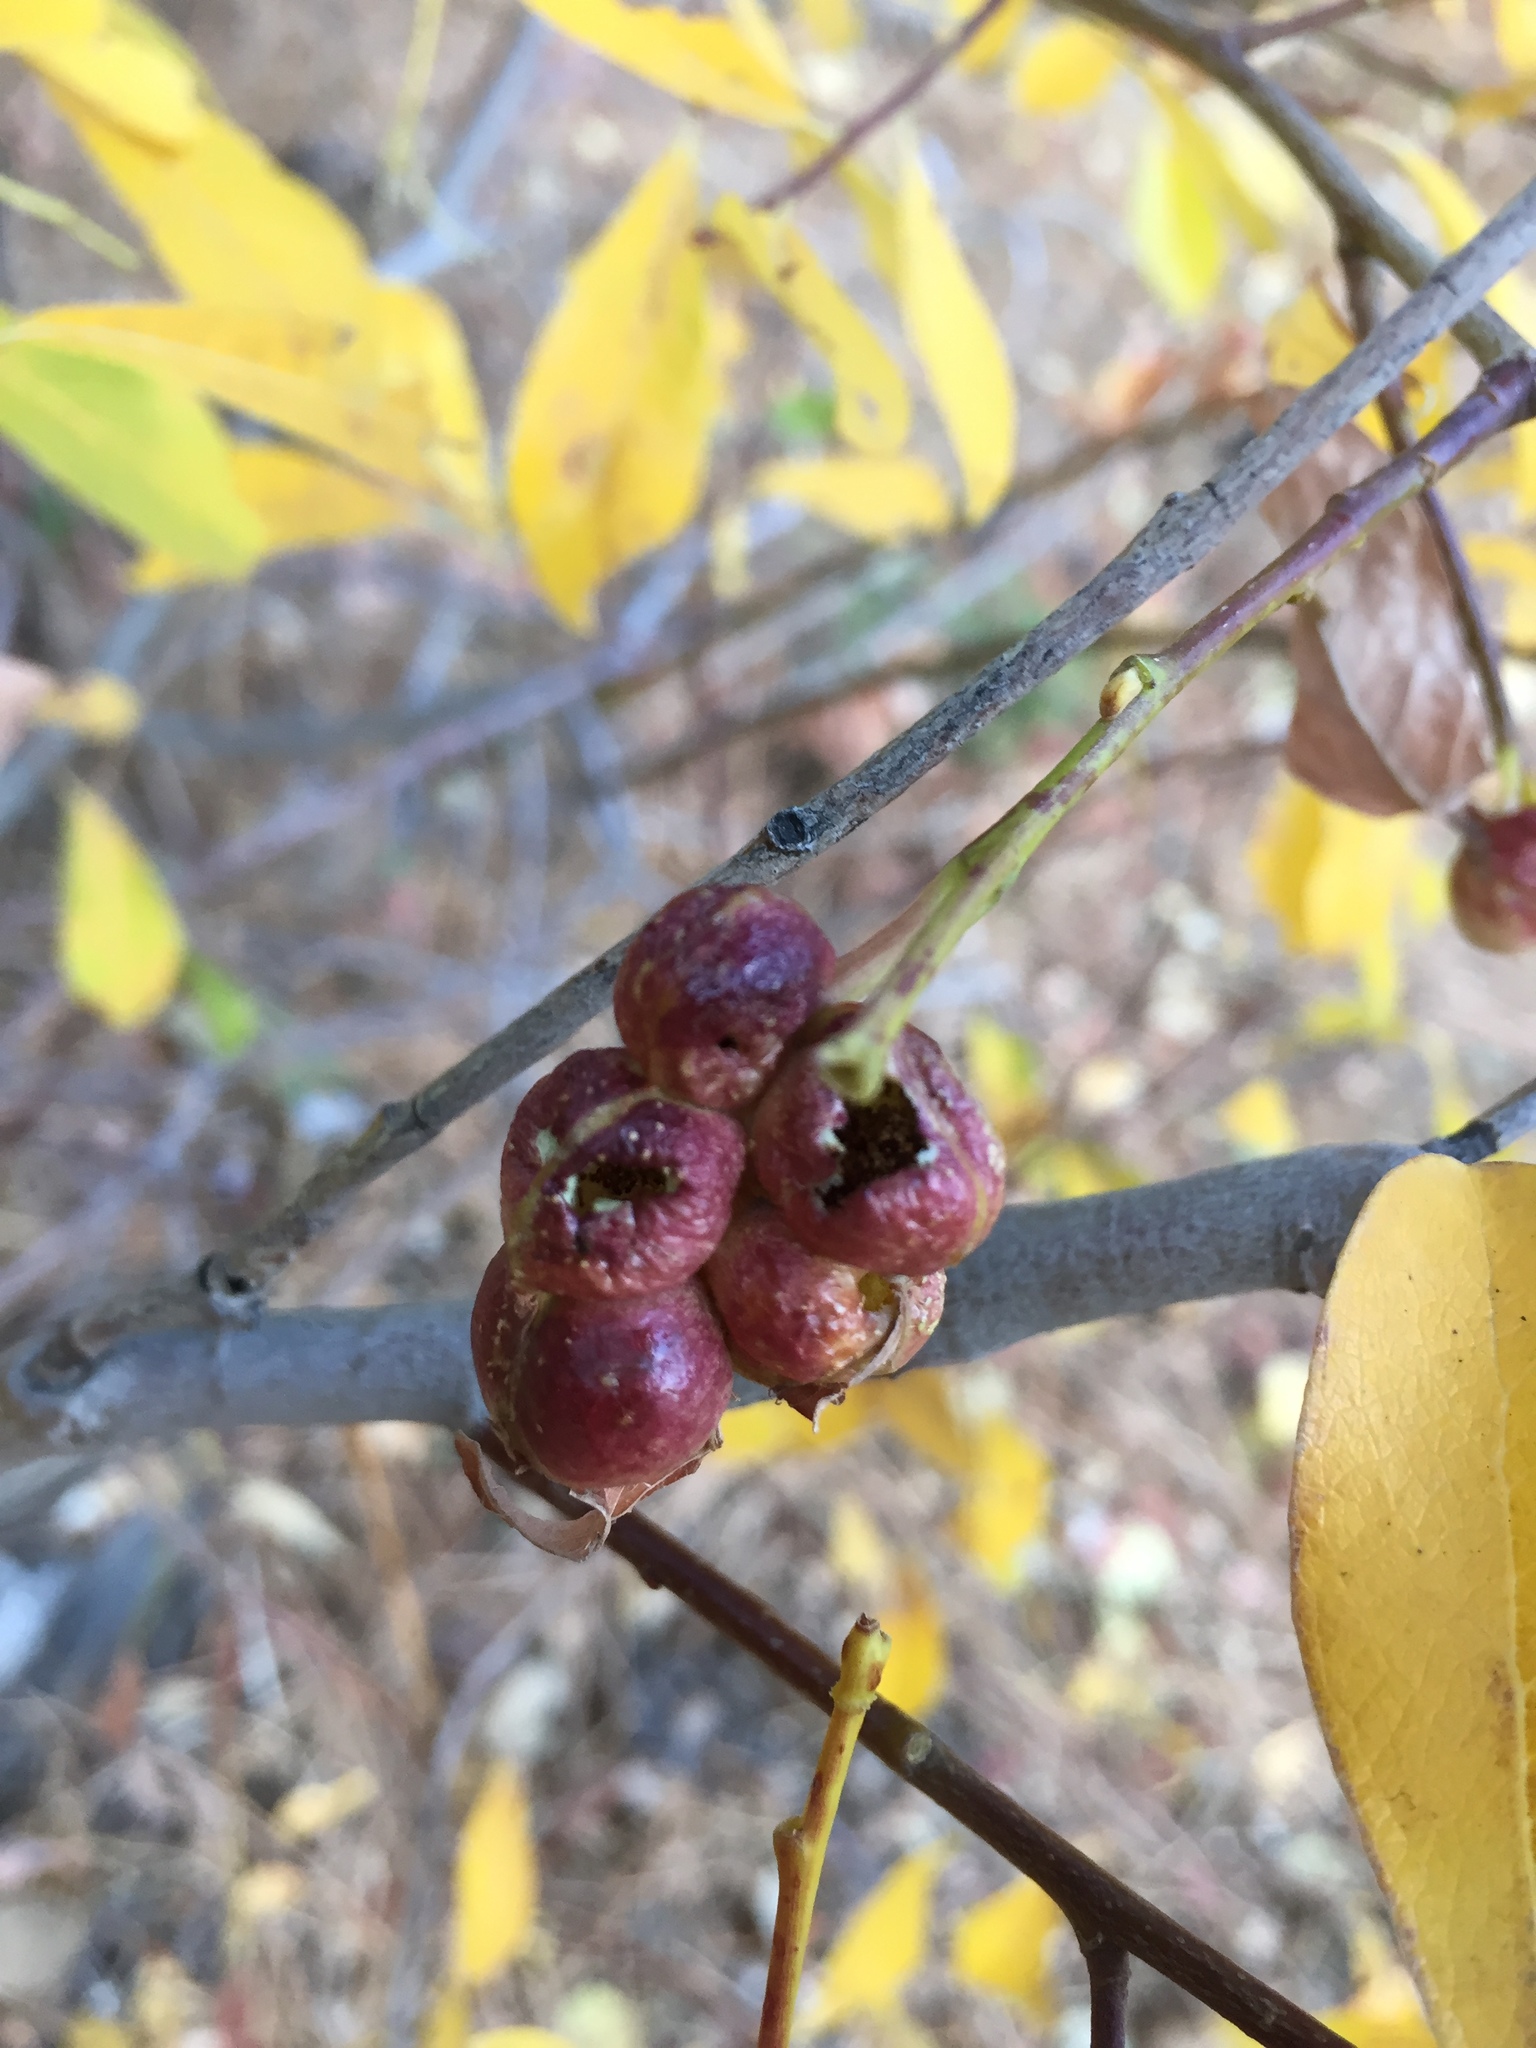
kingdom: Plantae
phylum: Tracheophyta
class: Magnoliopsida
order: Malpighiales
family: Salicaceae
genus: Salix
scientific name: Salix scouleriana
